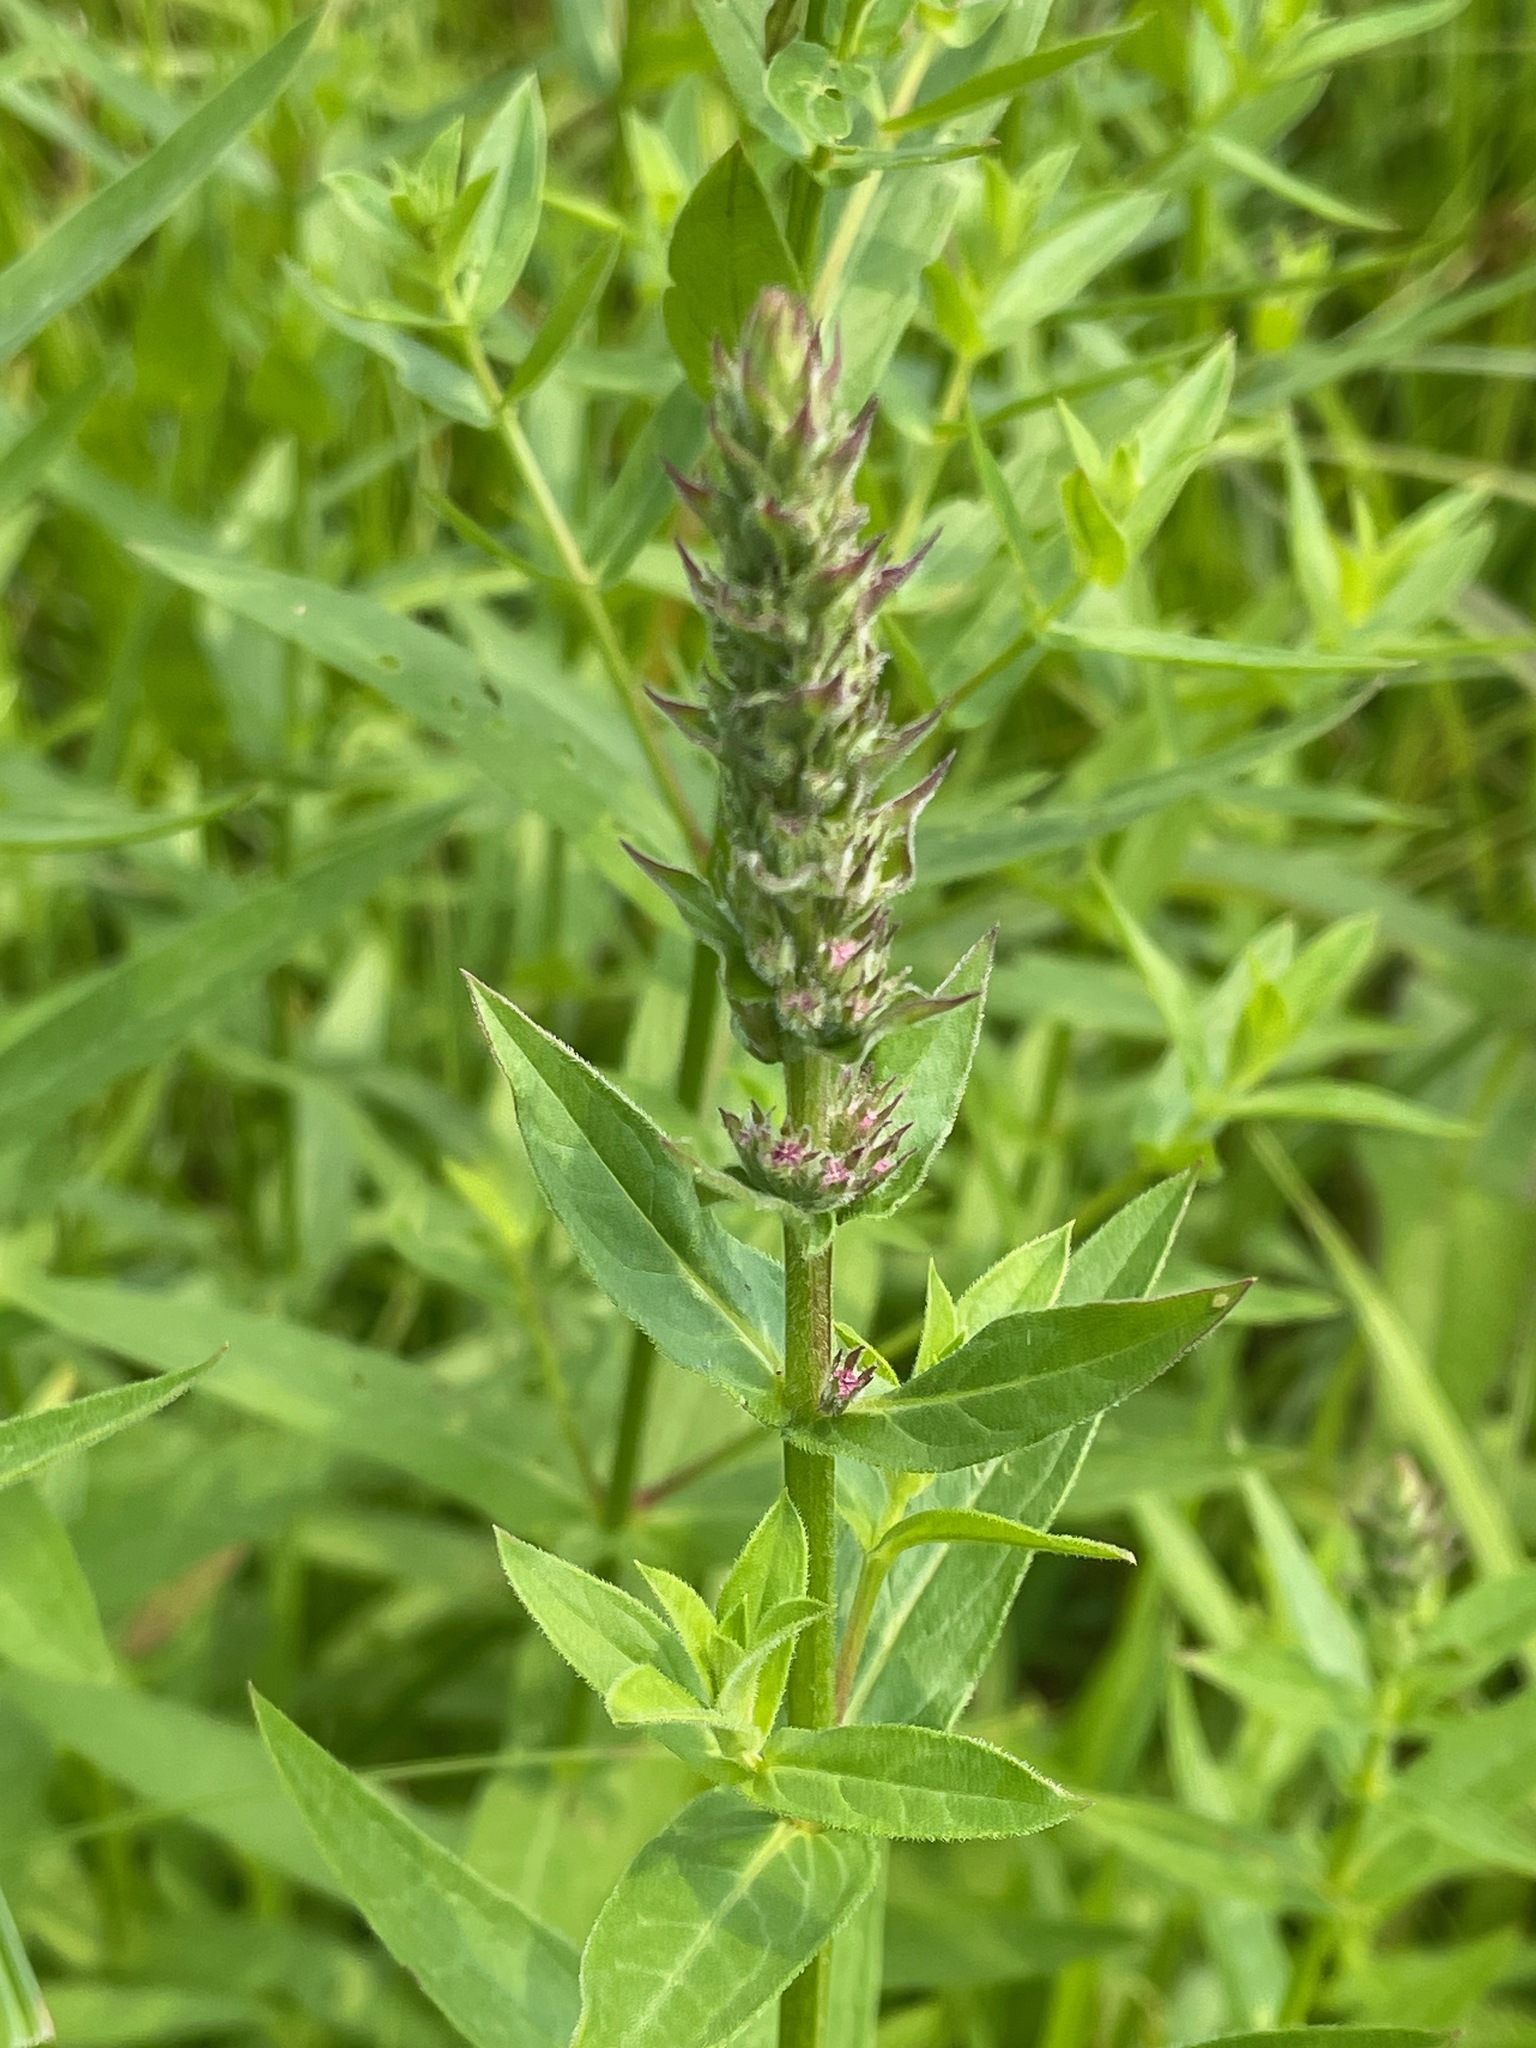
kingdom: Plantae
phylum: Tracheophyta
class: Magnoliopsida
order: Myrtales
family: Lythraceae
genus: Lythrum
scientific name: Lythrum salicaria
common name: Purple loosestrife
